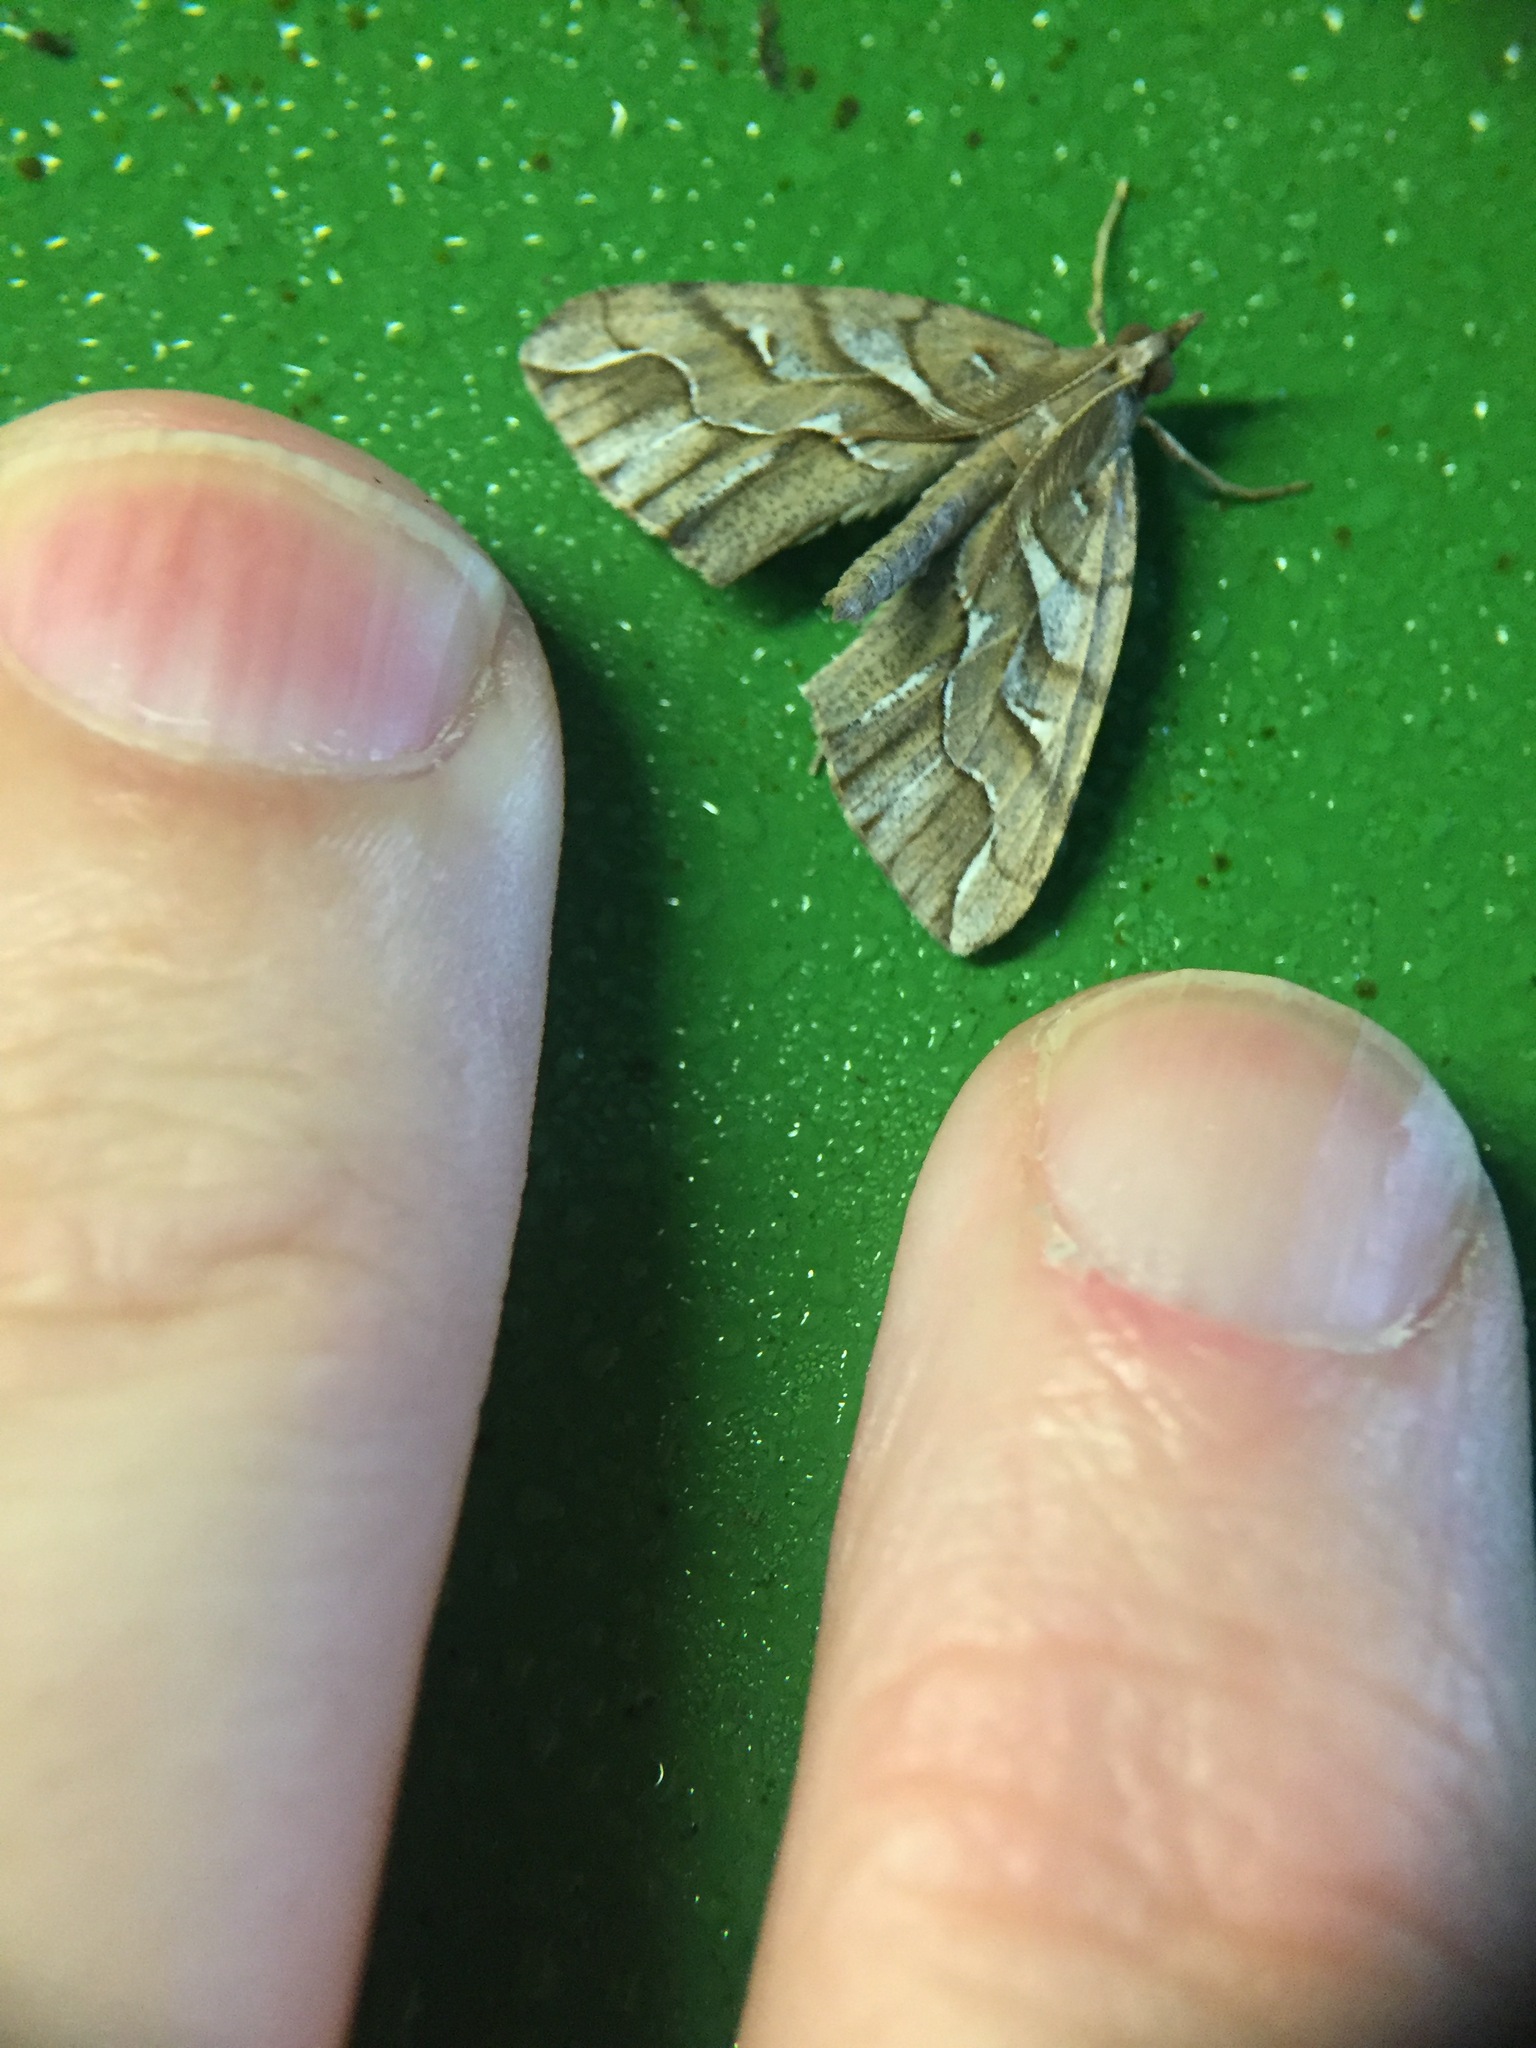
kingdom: Animalia
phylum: Arthropoda
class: Insecta
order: Lepidoptera
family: Geometridae
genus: Chalastra
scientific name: Chalastra aristarcha
